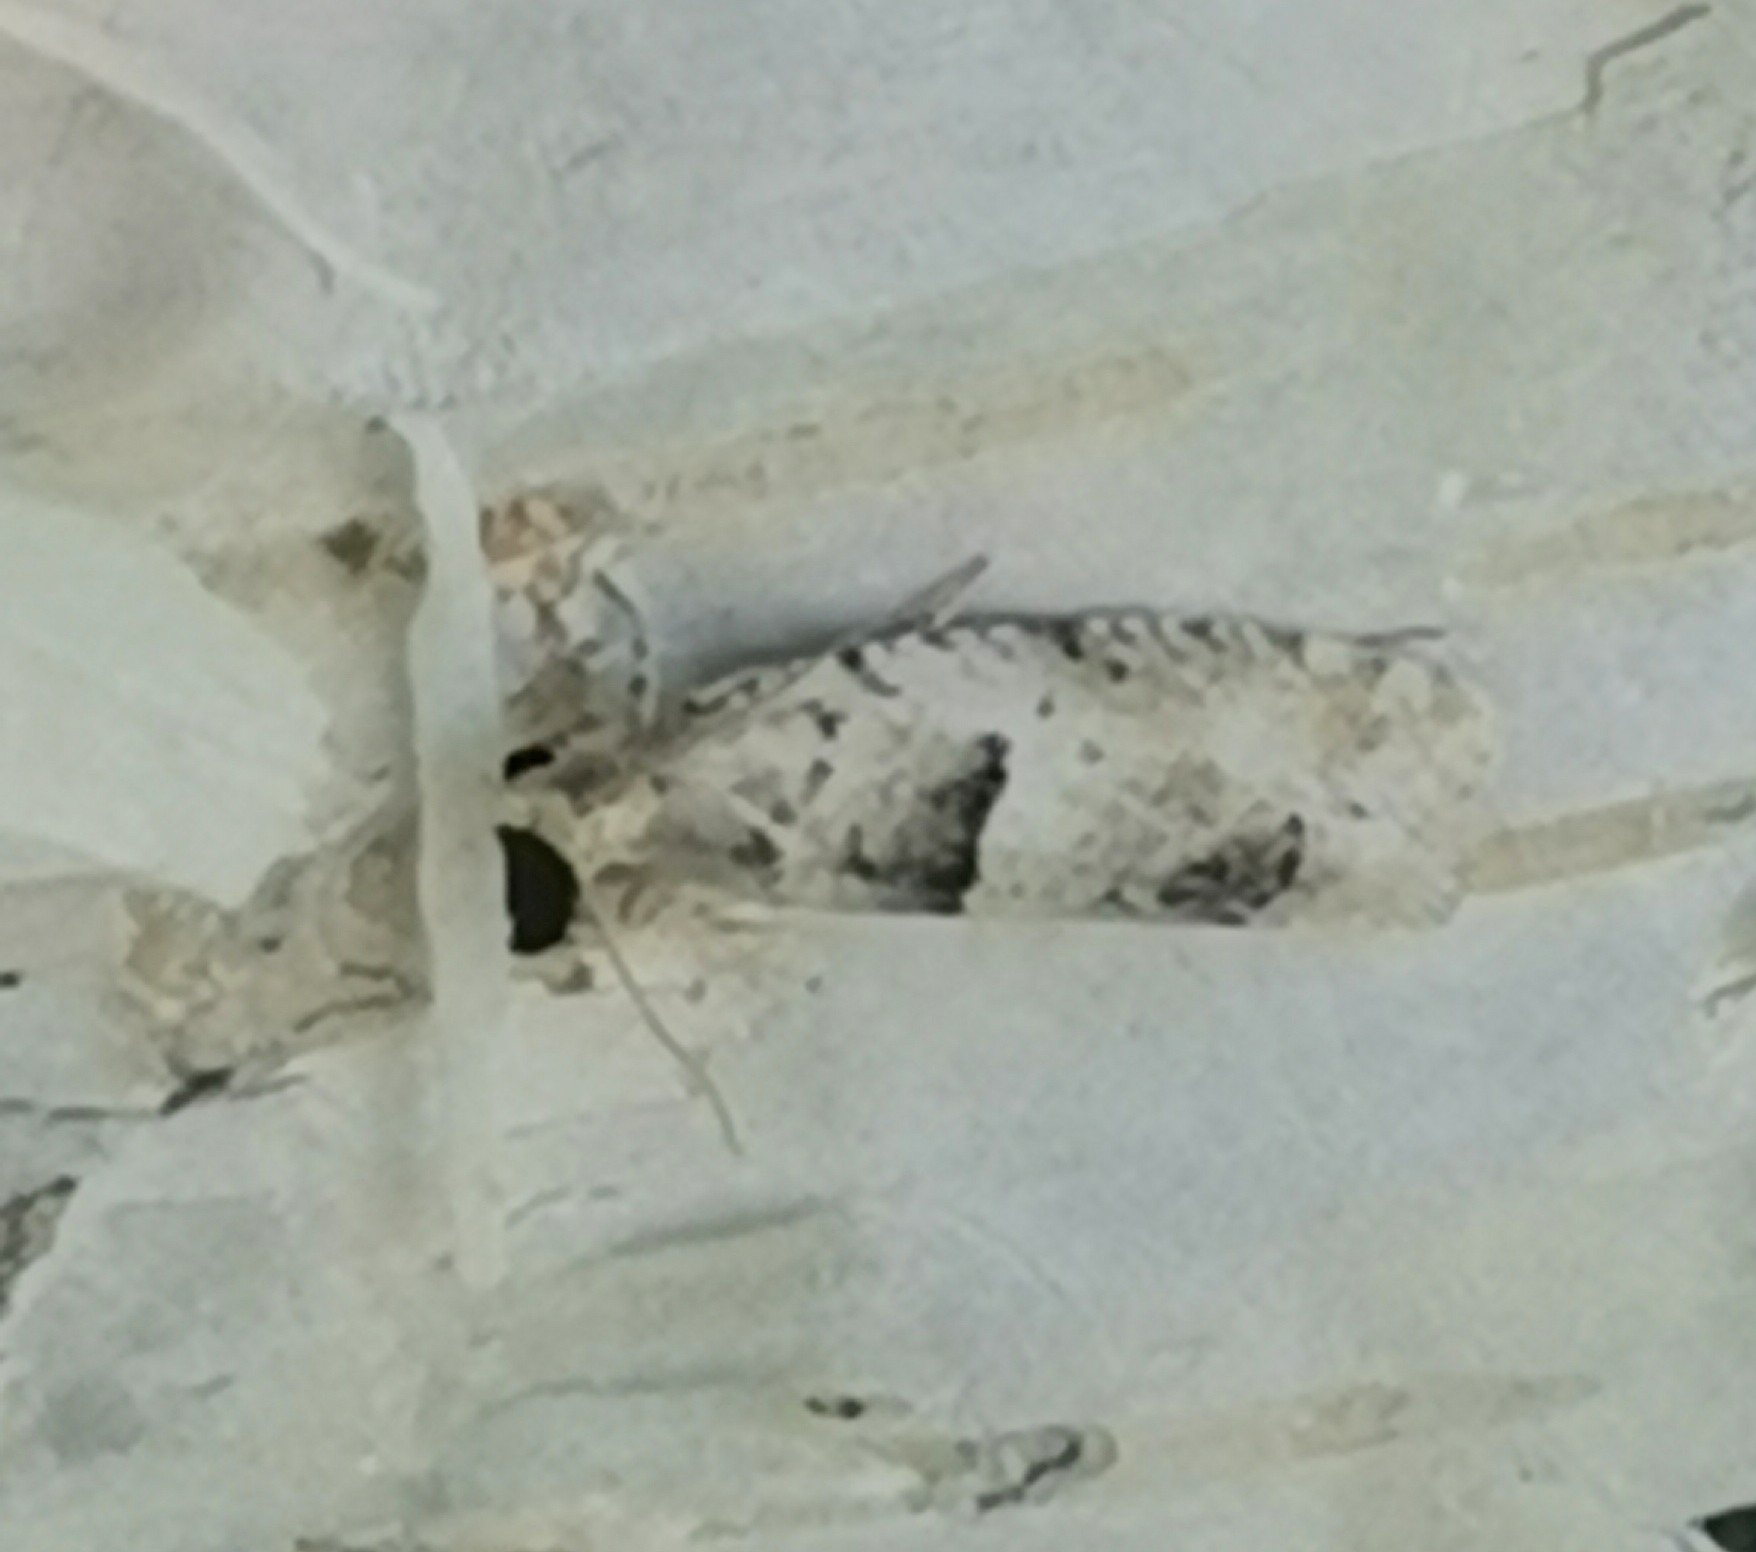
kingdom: Animalia
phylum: Arthropoda
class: Insecta
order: Lepidoptera
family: Tortricidae
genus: Epinotia
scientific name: Epinotia bilunana
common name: Crescent bell
